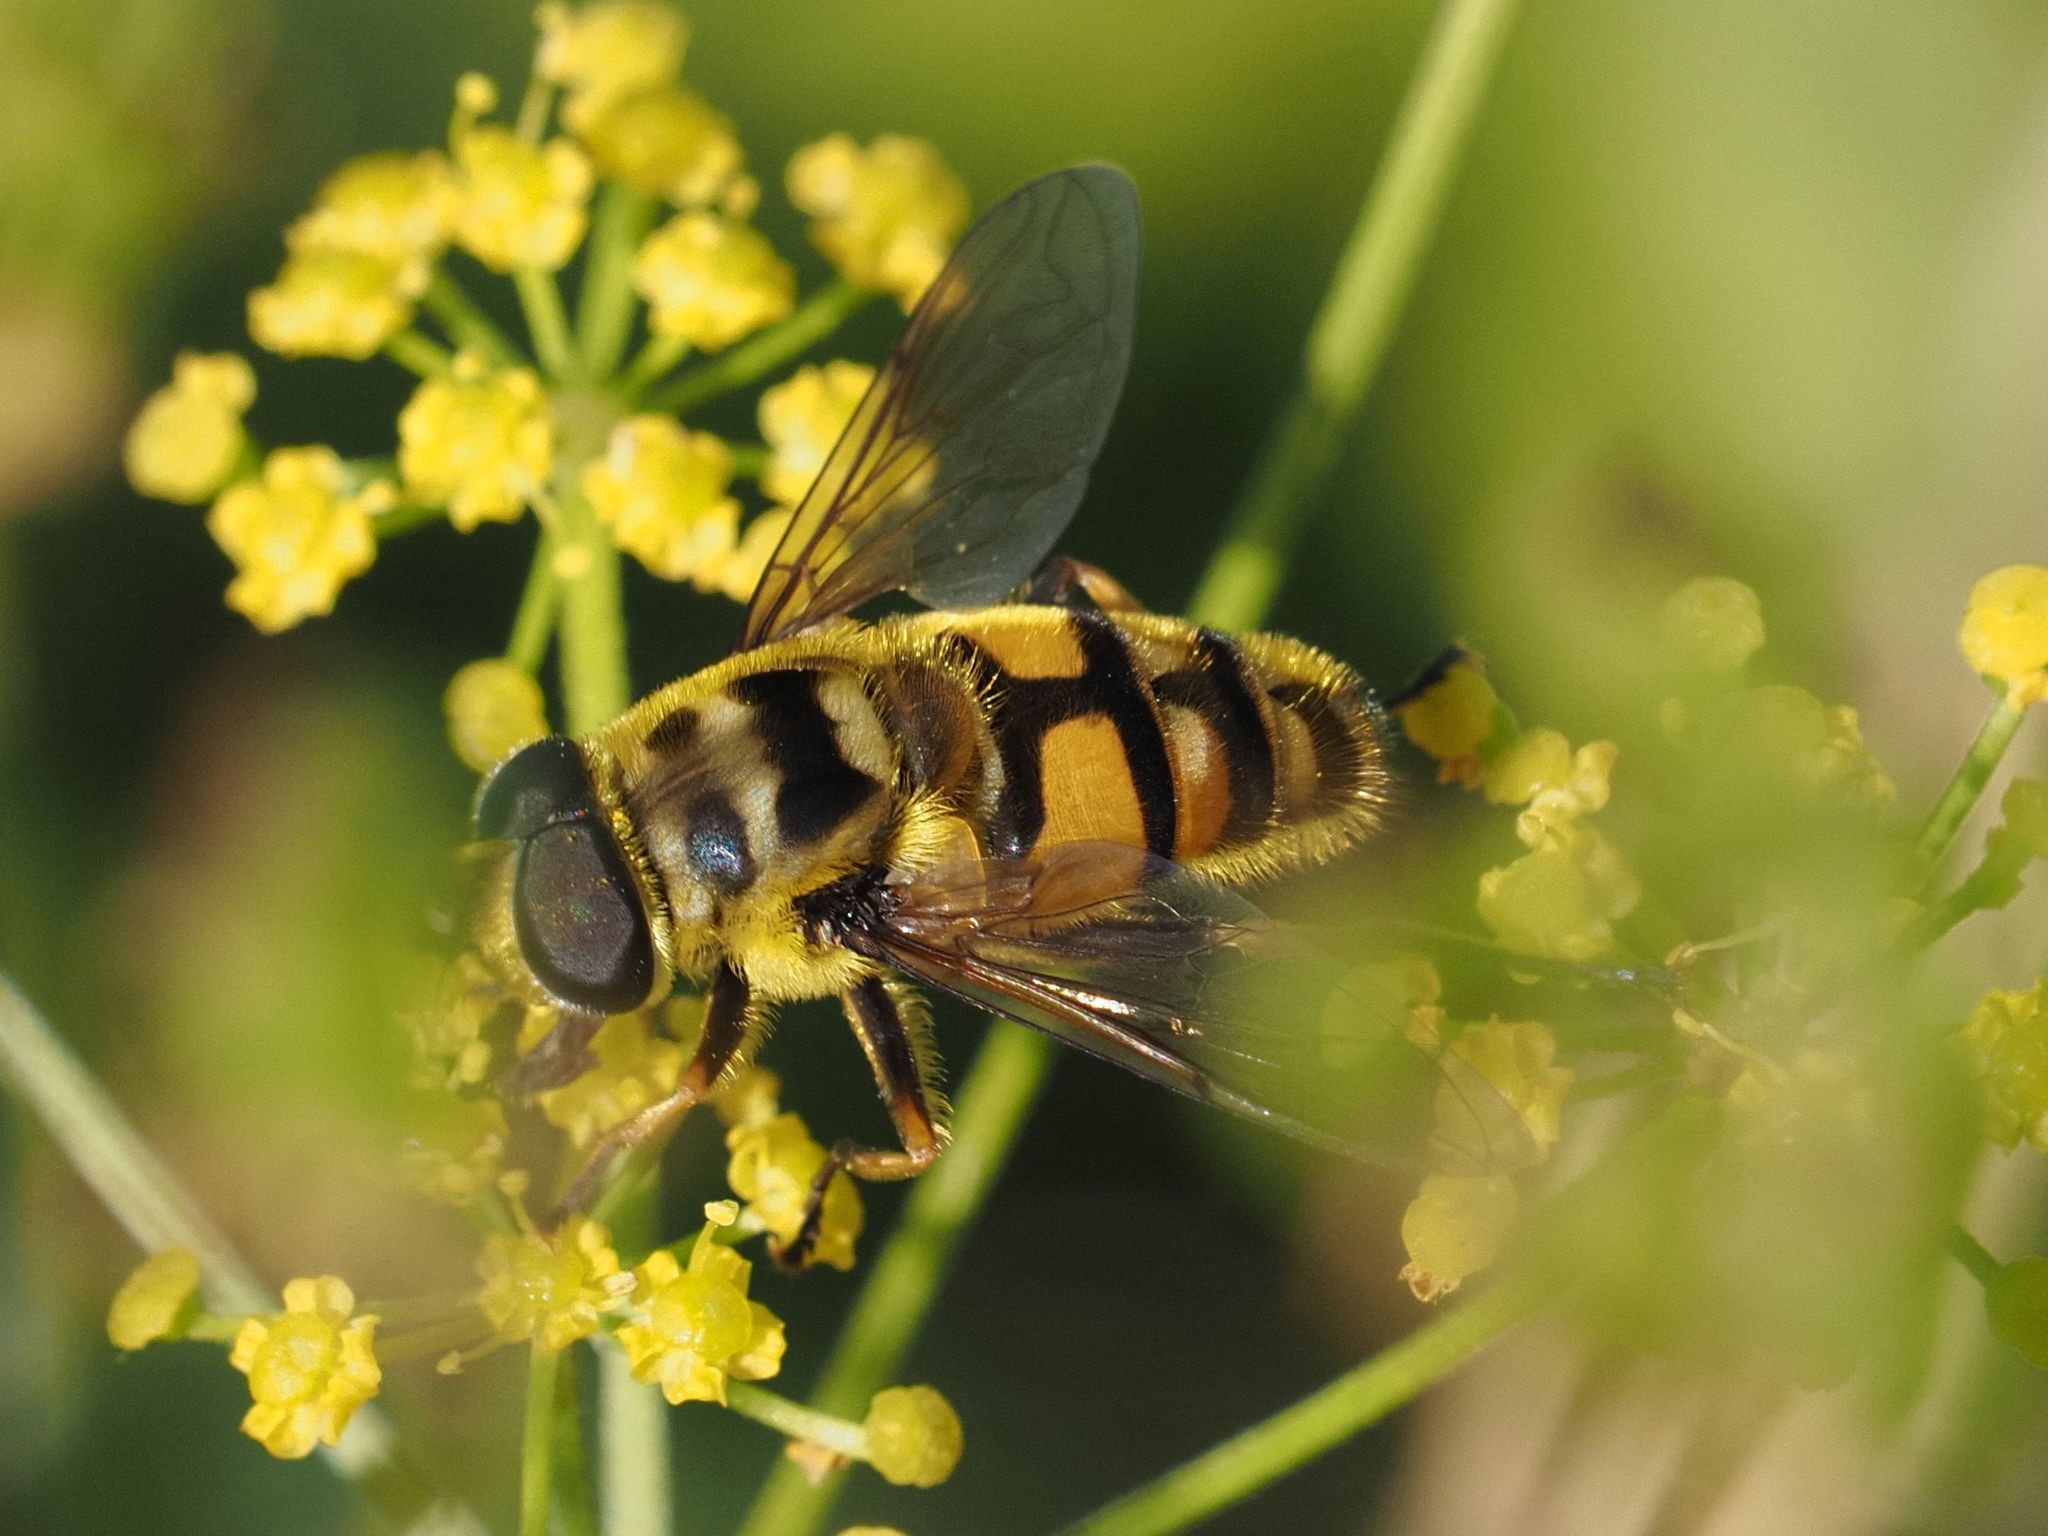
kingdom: Animalia
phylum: Arthropoda
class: Insecta
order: Diptera
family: Syrphidae
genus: Myathropa
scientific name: Myathropa florea
